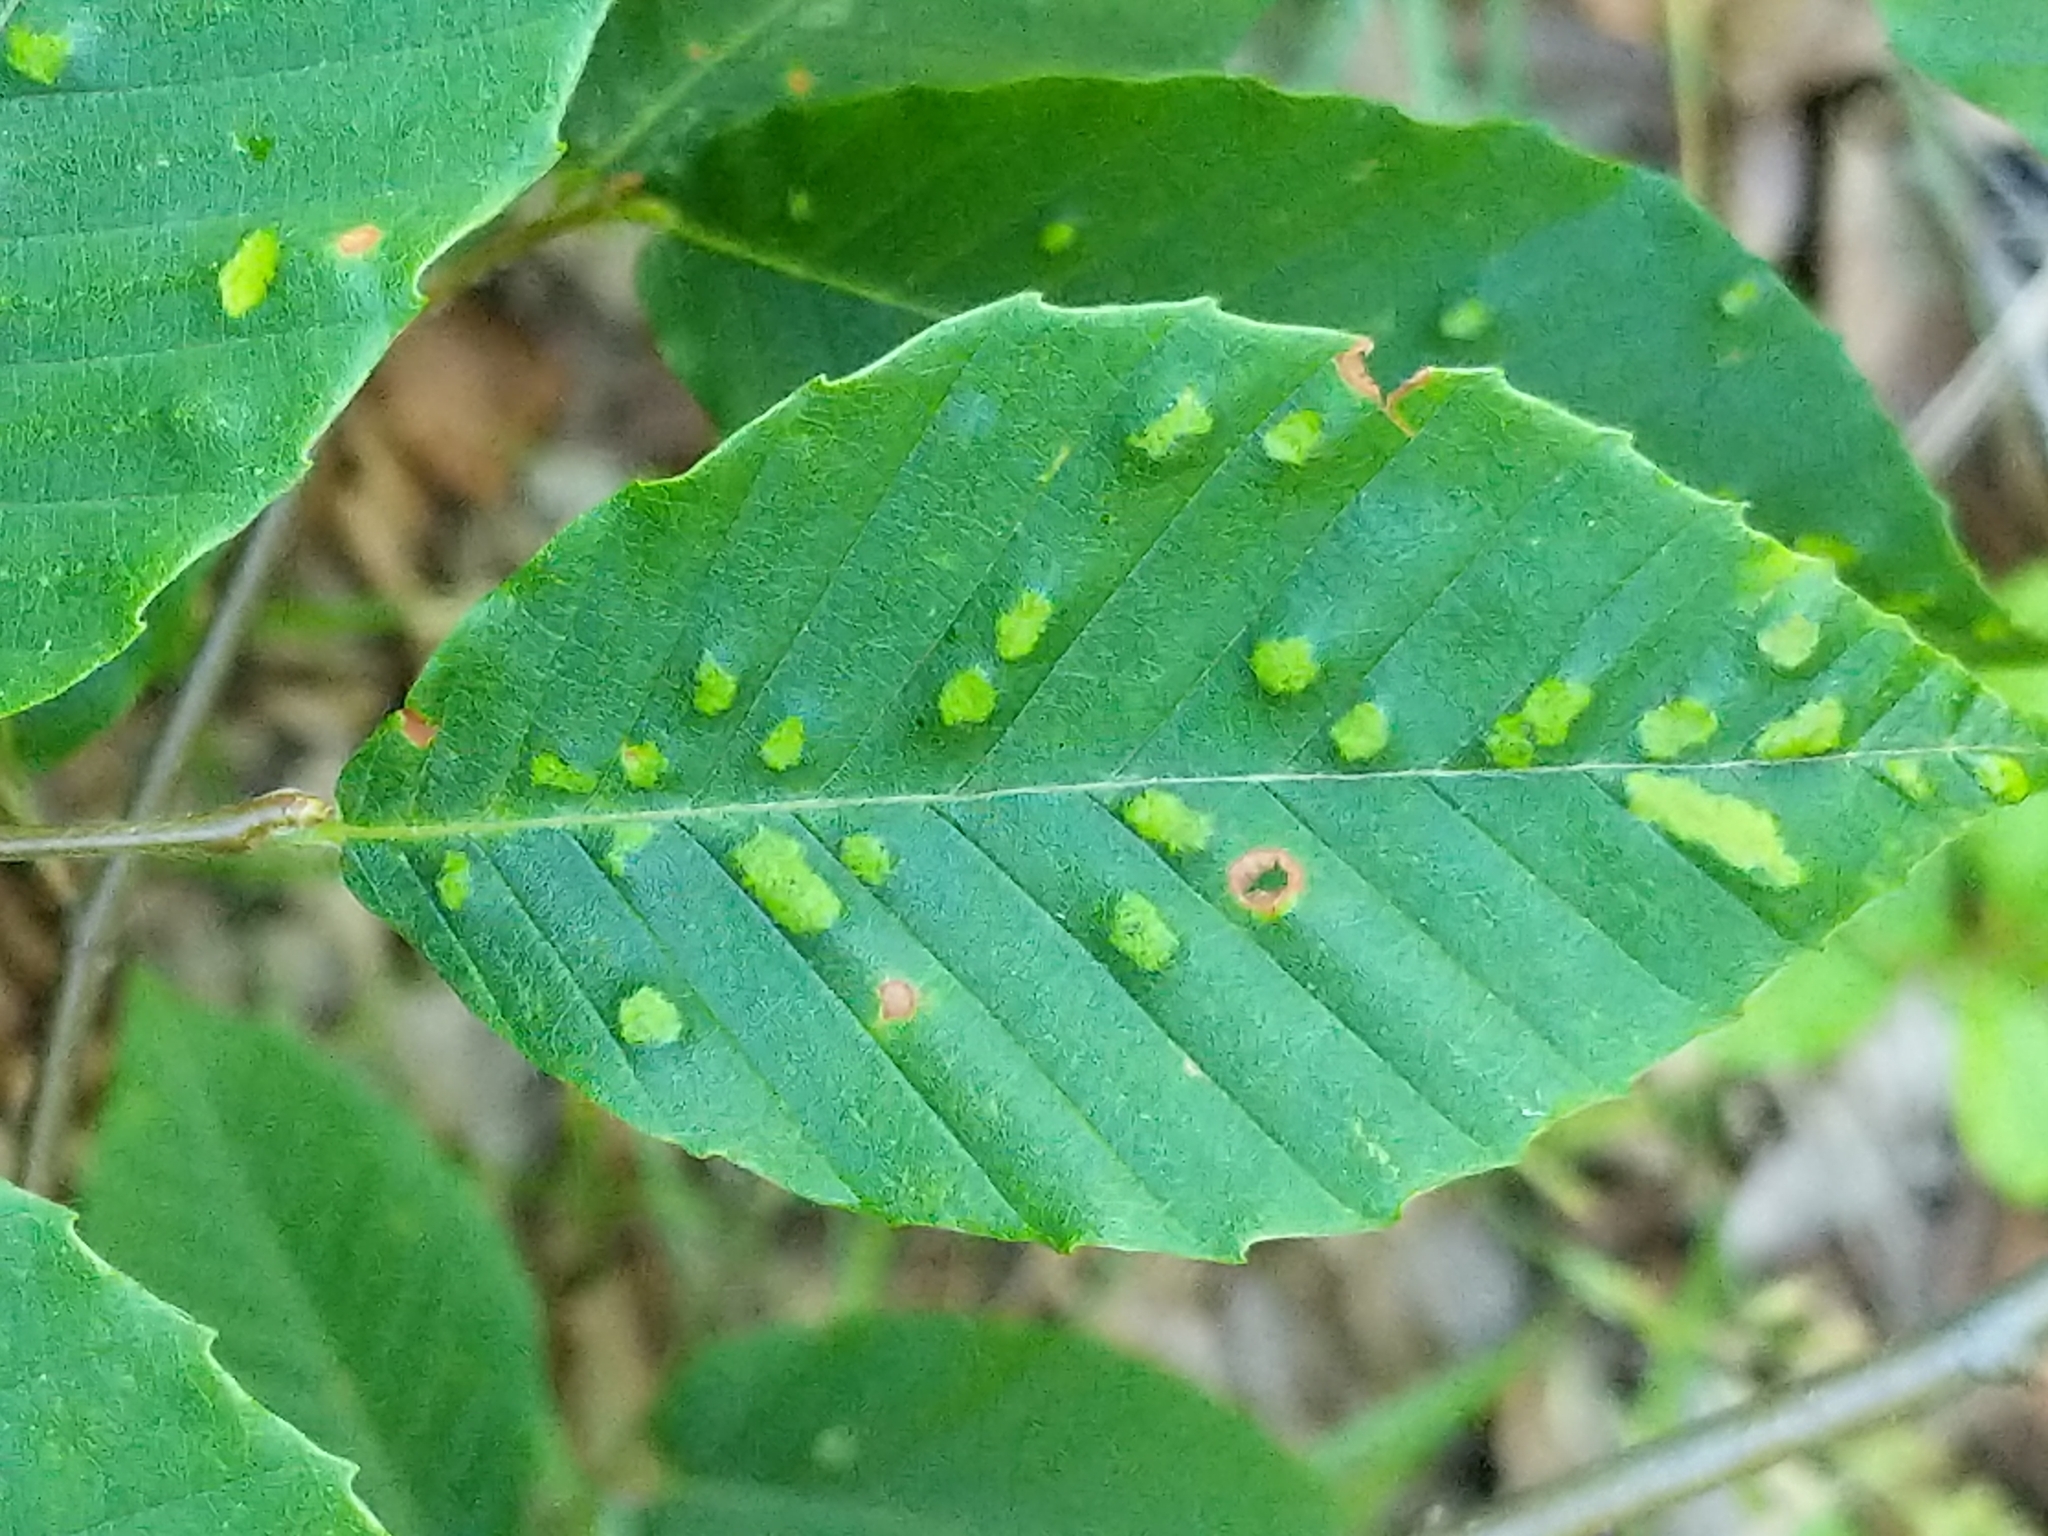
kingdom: Animalia
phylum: Arthropoda
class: Arachnida
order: Trombidiformes
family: Eriophyidae
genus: Acalitus
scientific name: Acalitus
